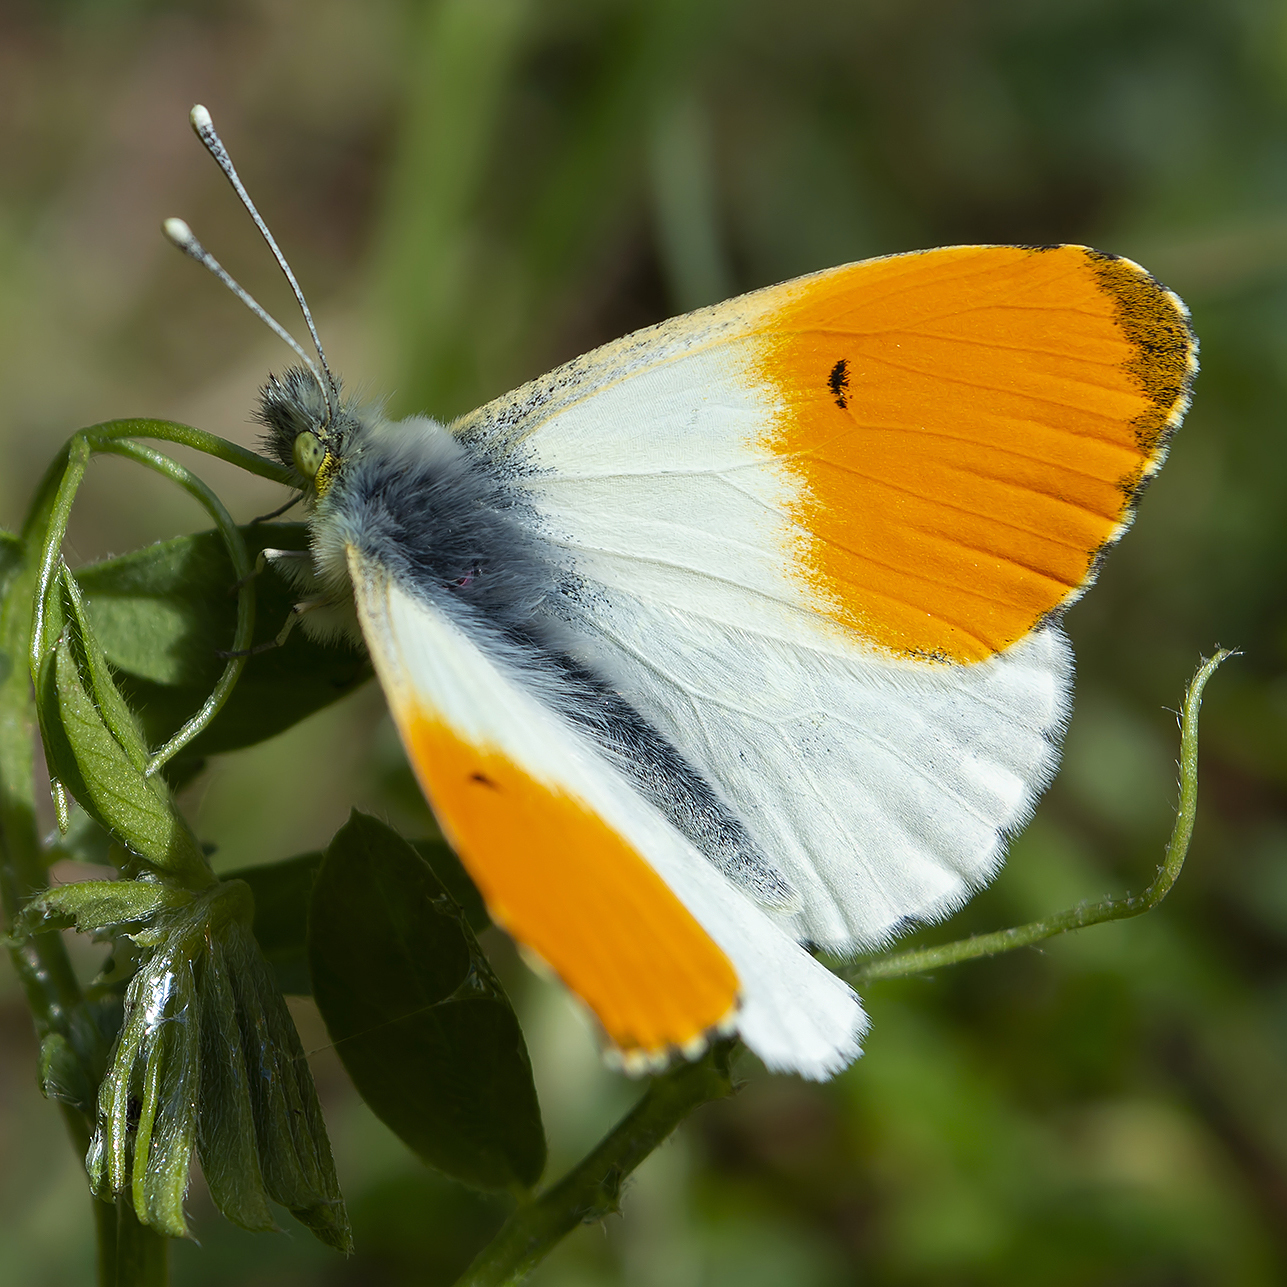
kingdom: Animalia
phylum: Arthropoda
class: Insecta
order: Lepidoptera
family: Pieridae
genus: Anthocharis
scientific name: Anthocharis cardamines
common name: Orange-tip
